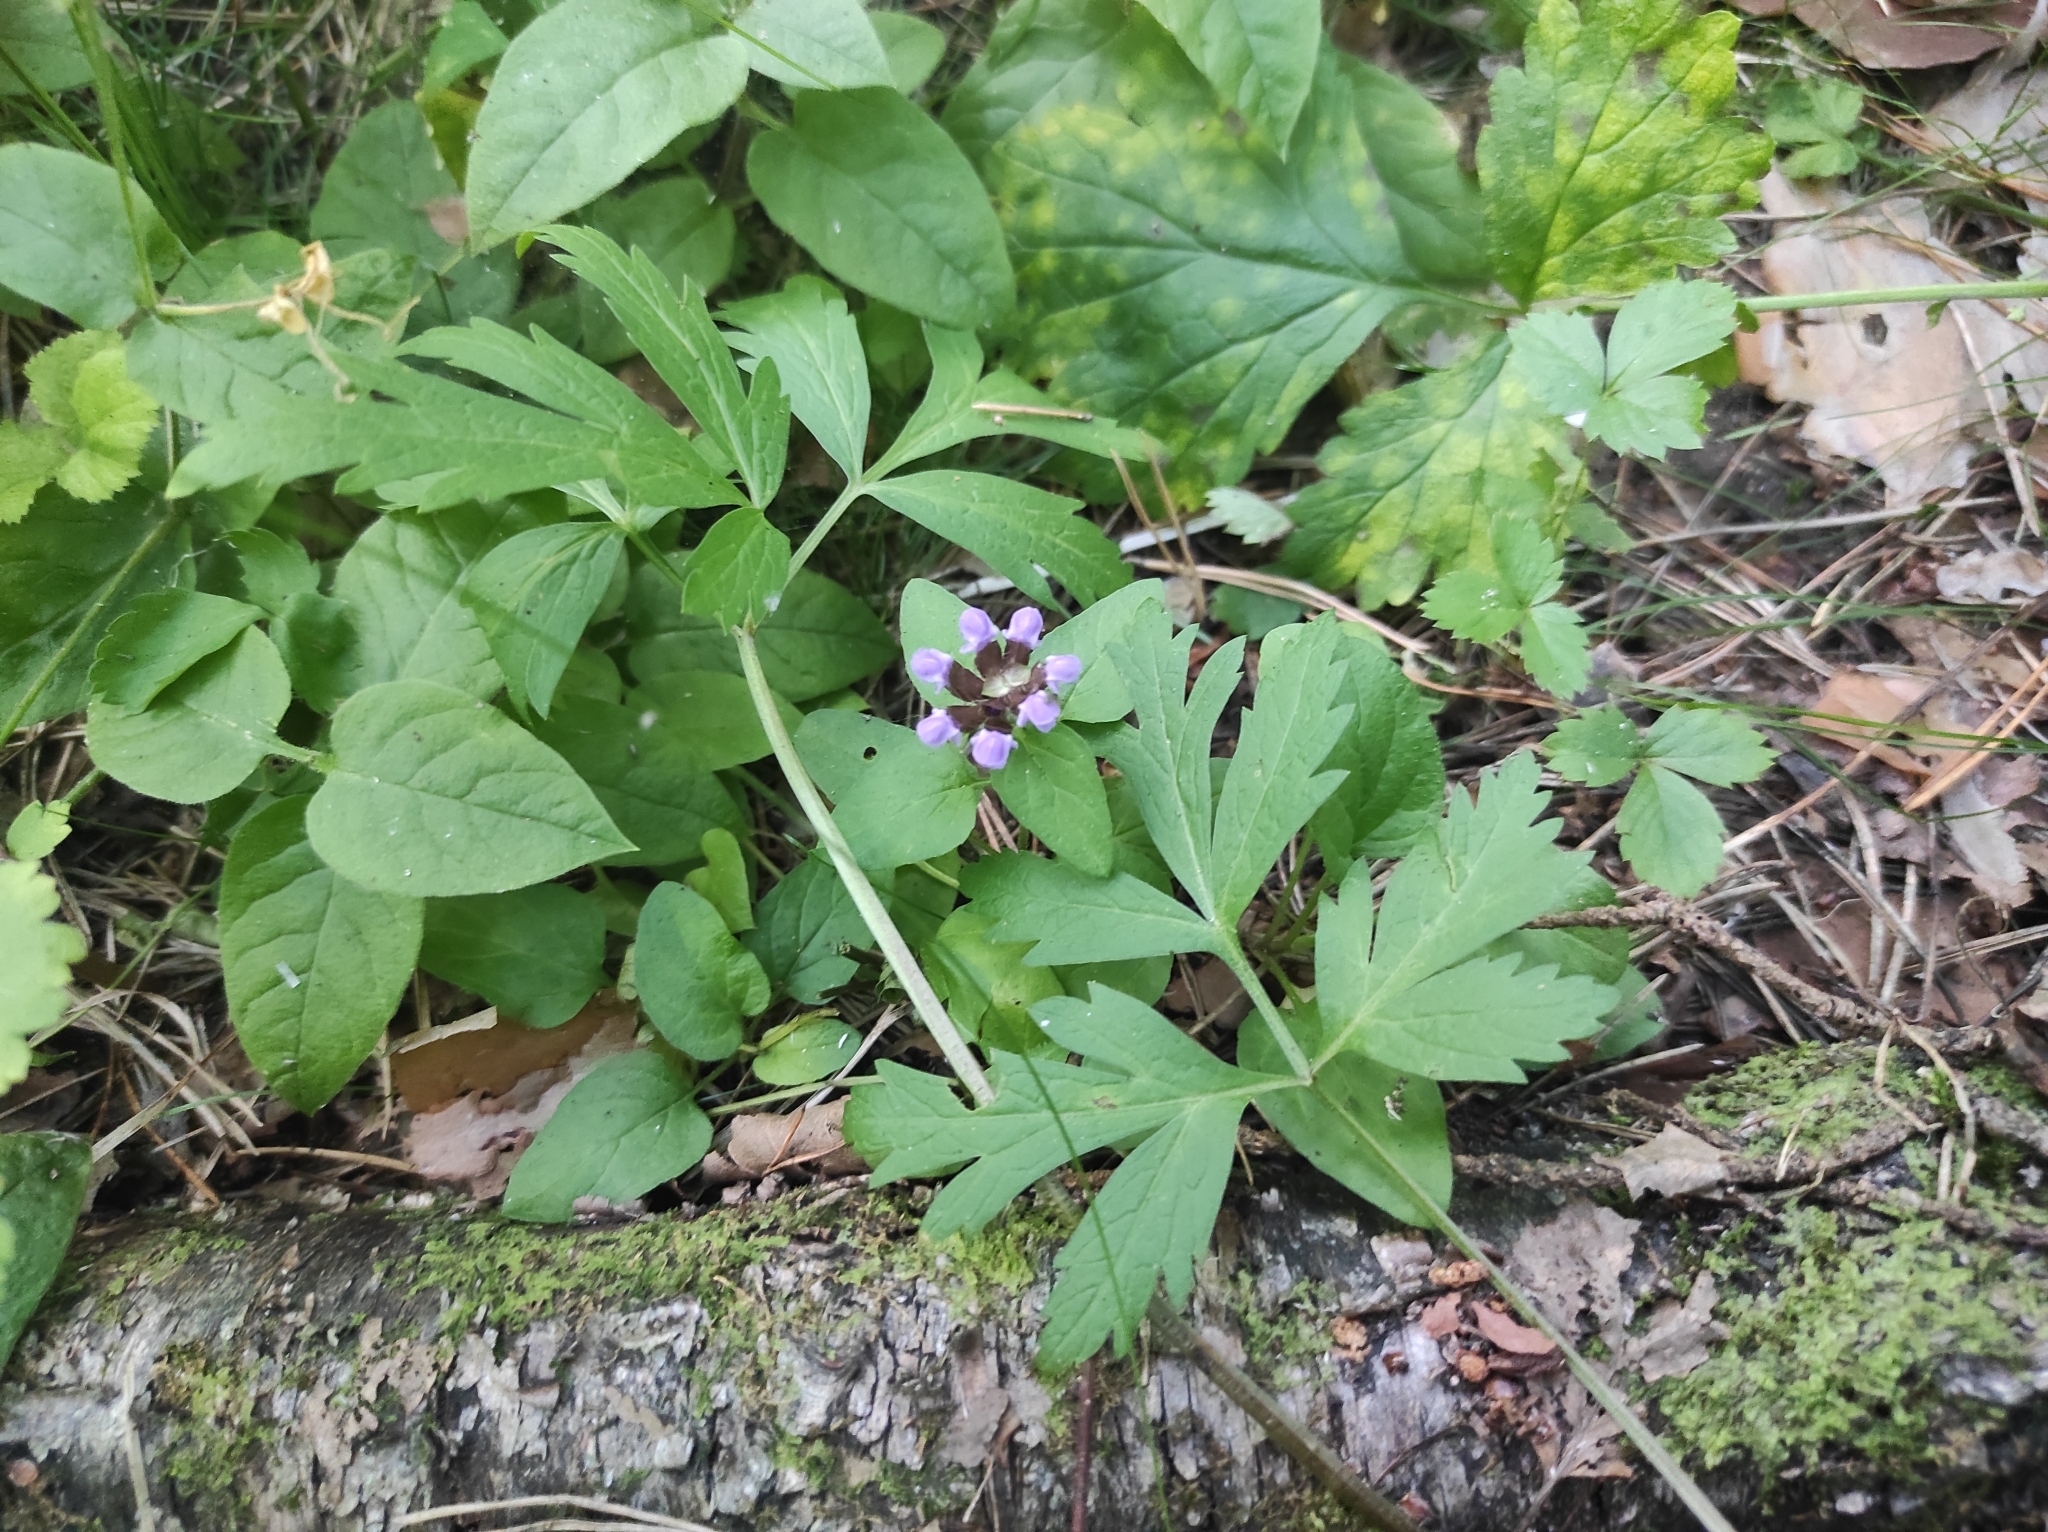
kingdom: Plantae
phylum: Tracheophyta
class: Magnoliopsida
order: Lamiales
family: Lamiaceae
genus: Prunella
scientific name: Prunella vulgaris
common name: Heal-all
